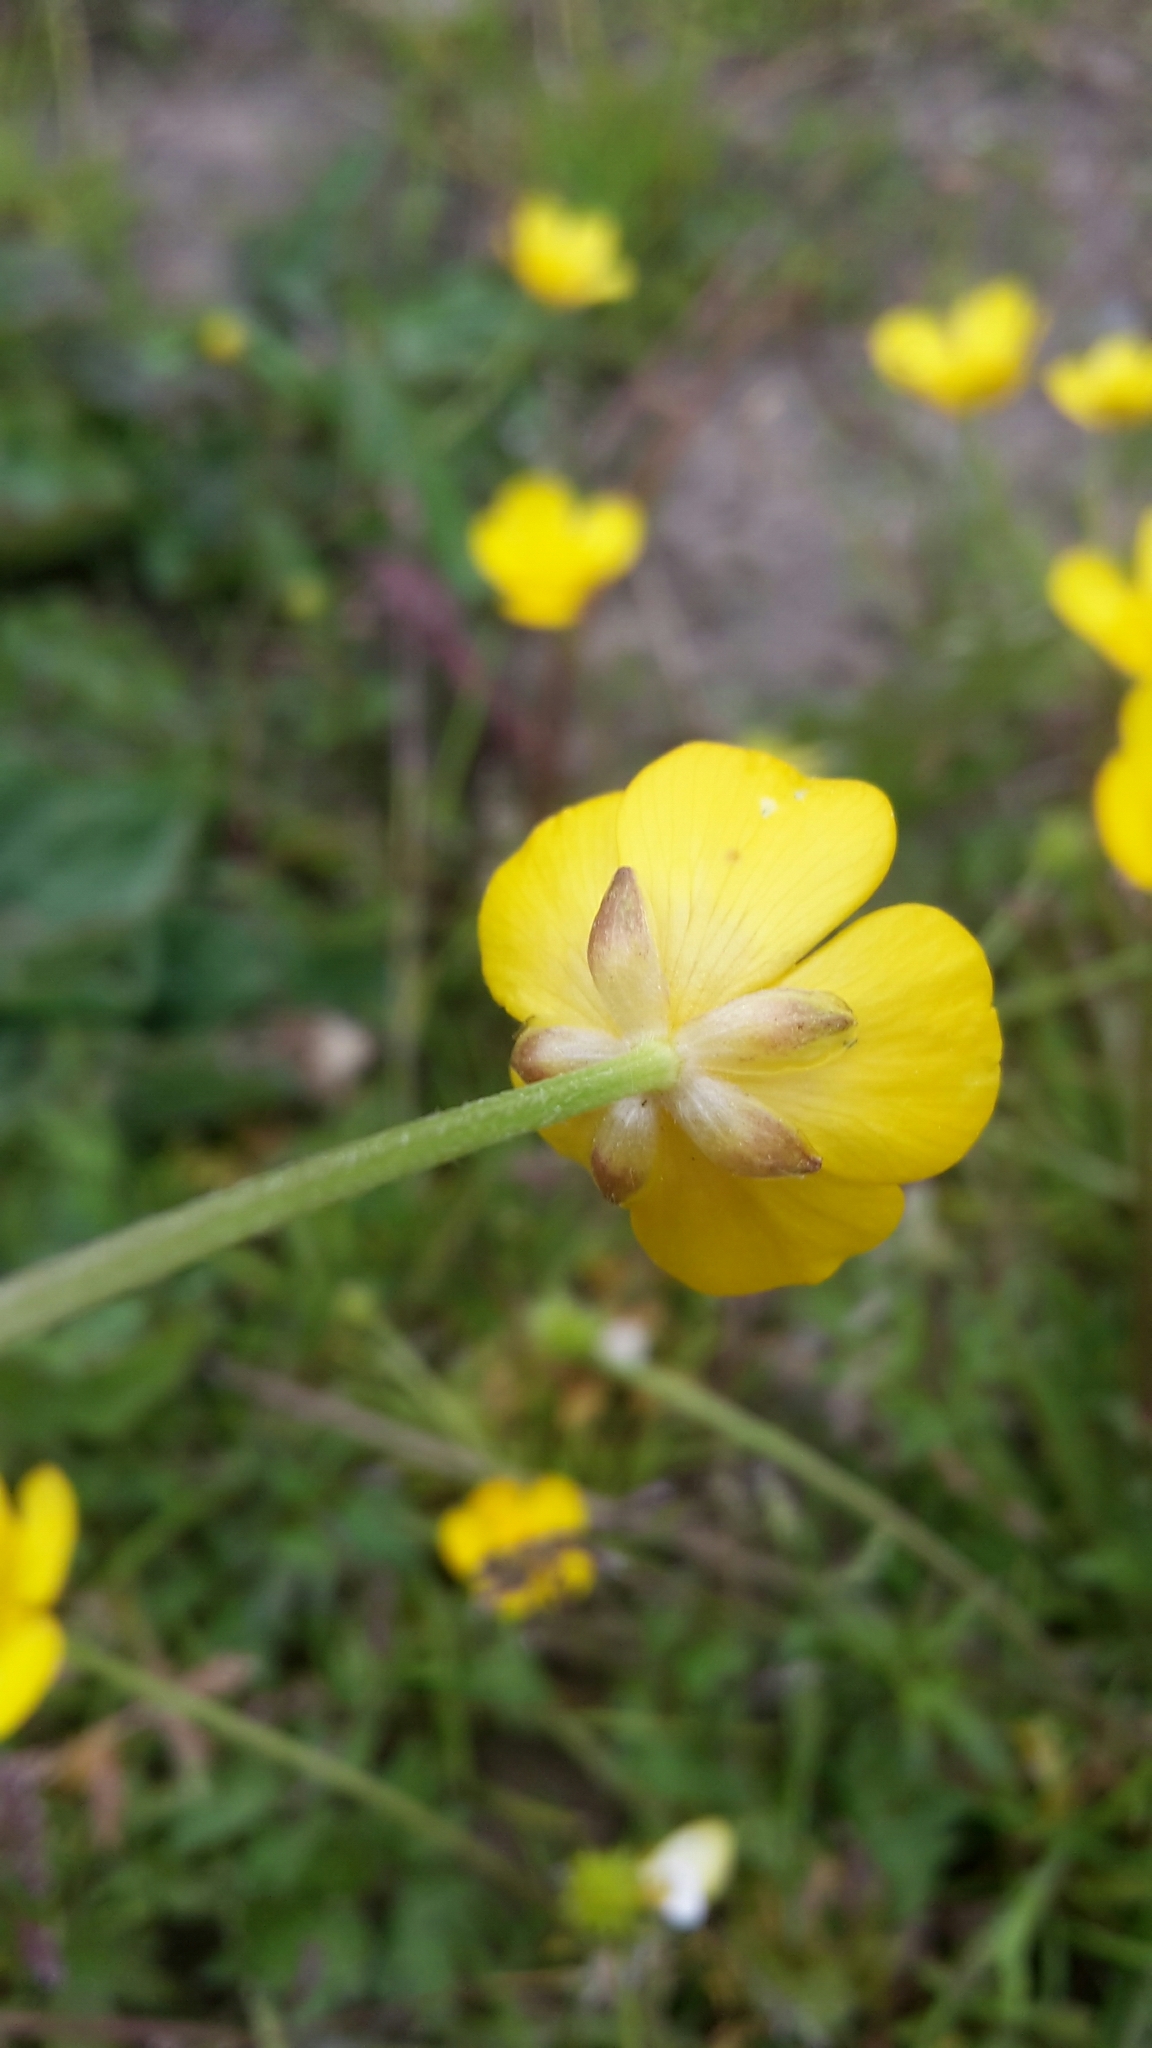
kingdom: Plantae
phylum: Tracheophyta
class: Magnoliopsida
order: Ranunculales
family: Ranunculaceae
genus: Ranunculus
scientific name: Ranunculus repens
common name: Creeping buttercup
